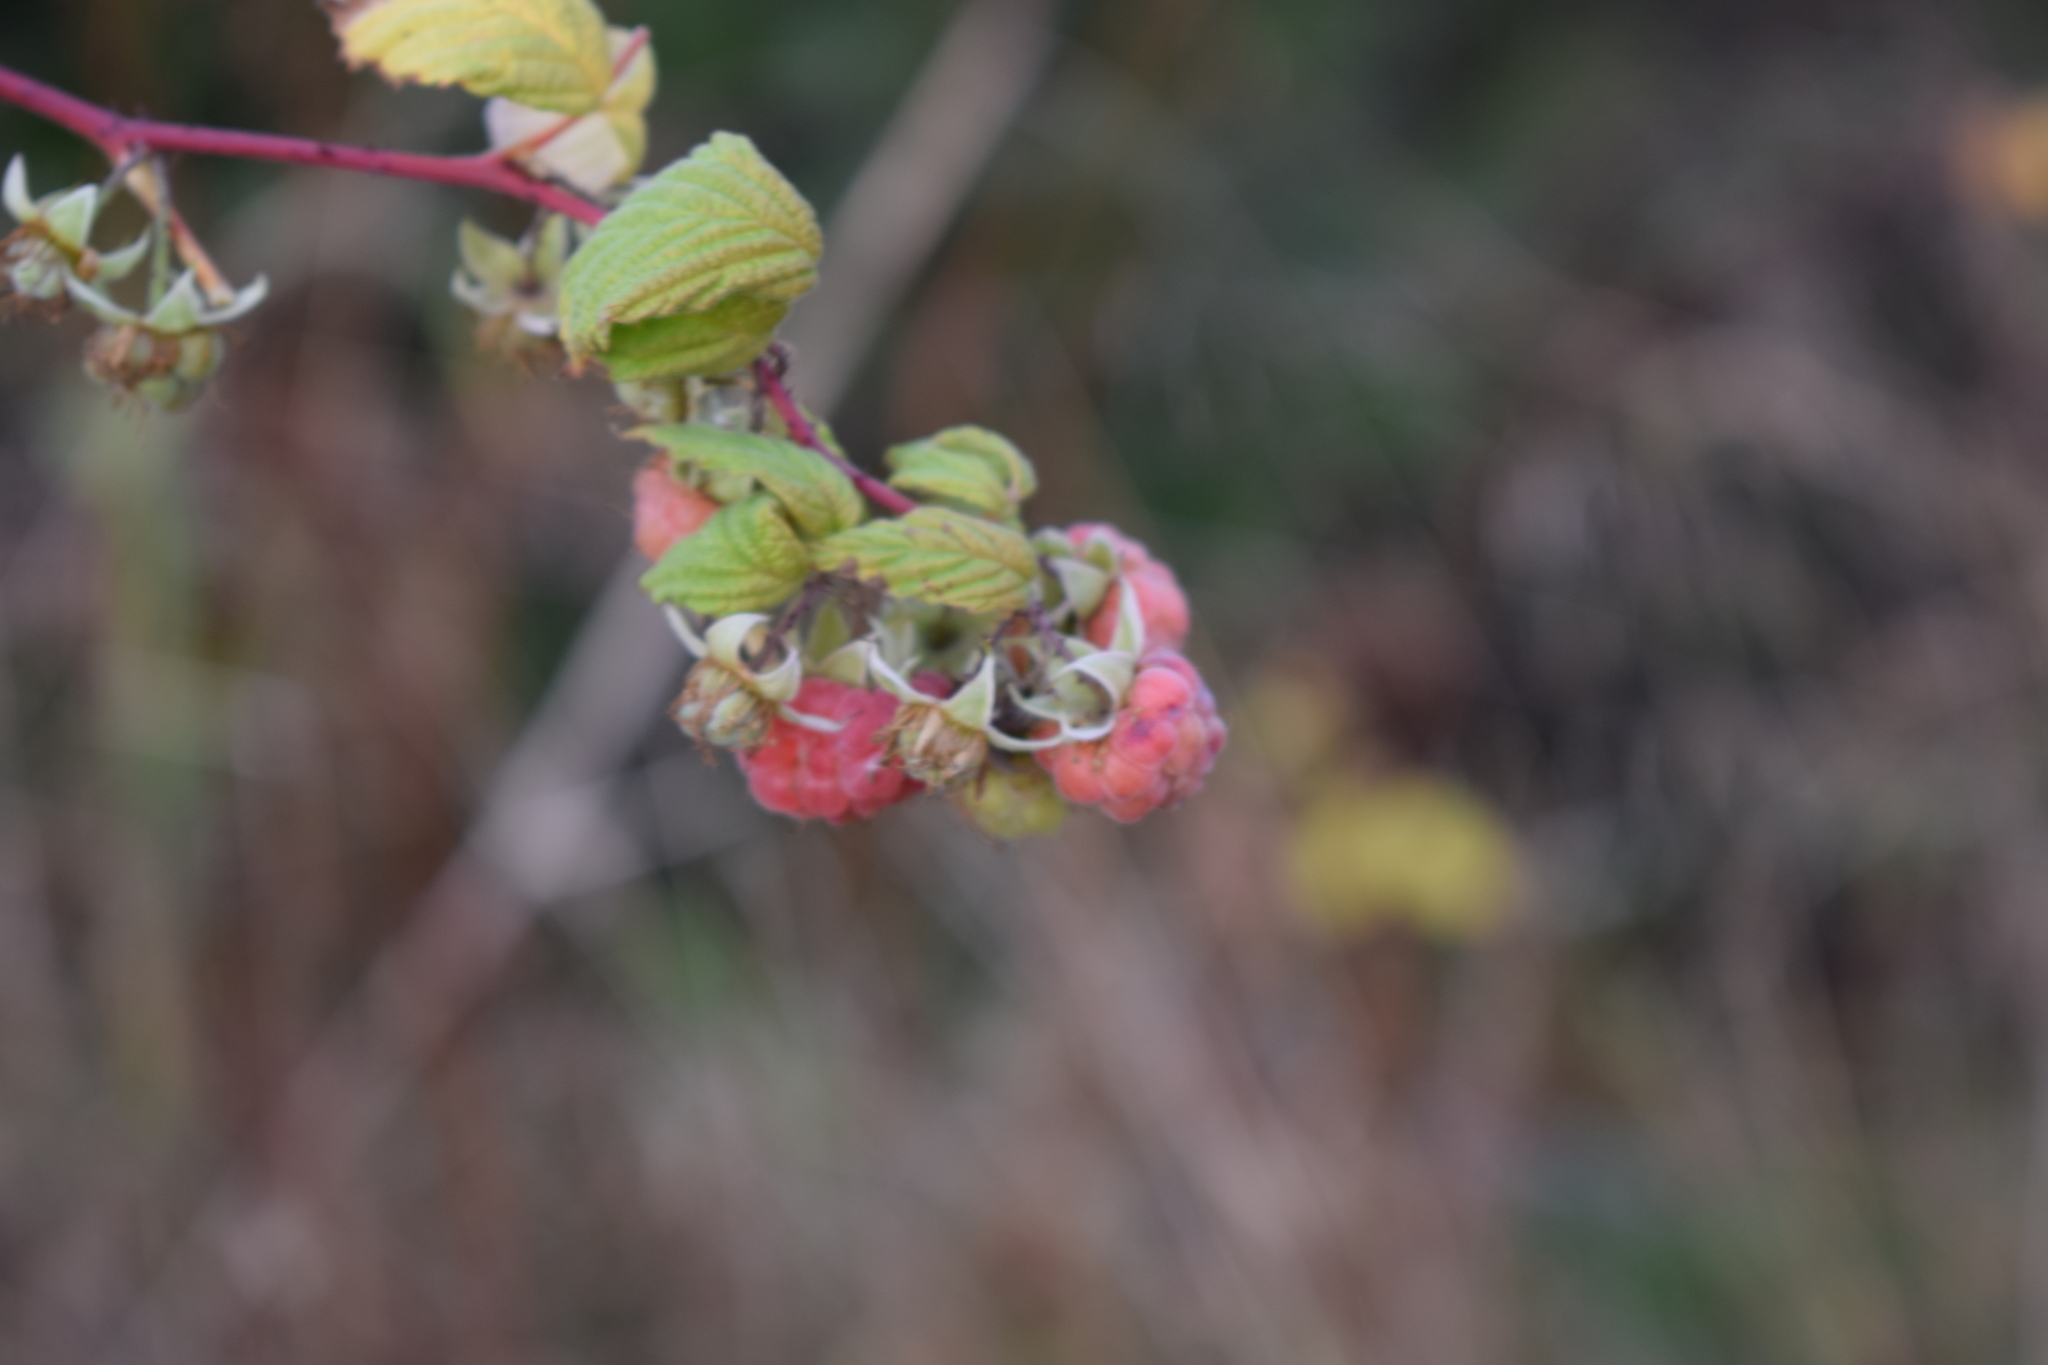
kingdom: Plantae
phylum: Tracheophyta
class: Magnoliopsida
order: Rosales
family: Rosaceae
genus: Rubus
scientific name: Rubus idaeus
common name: Raspberry
